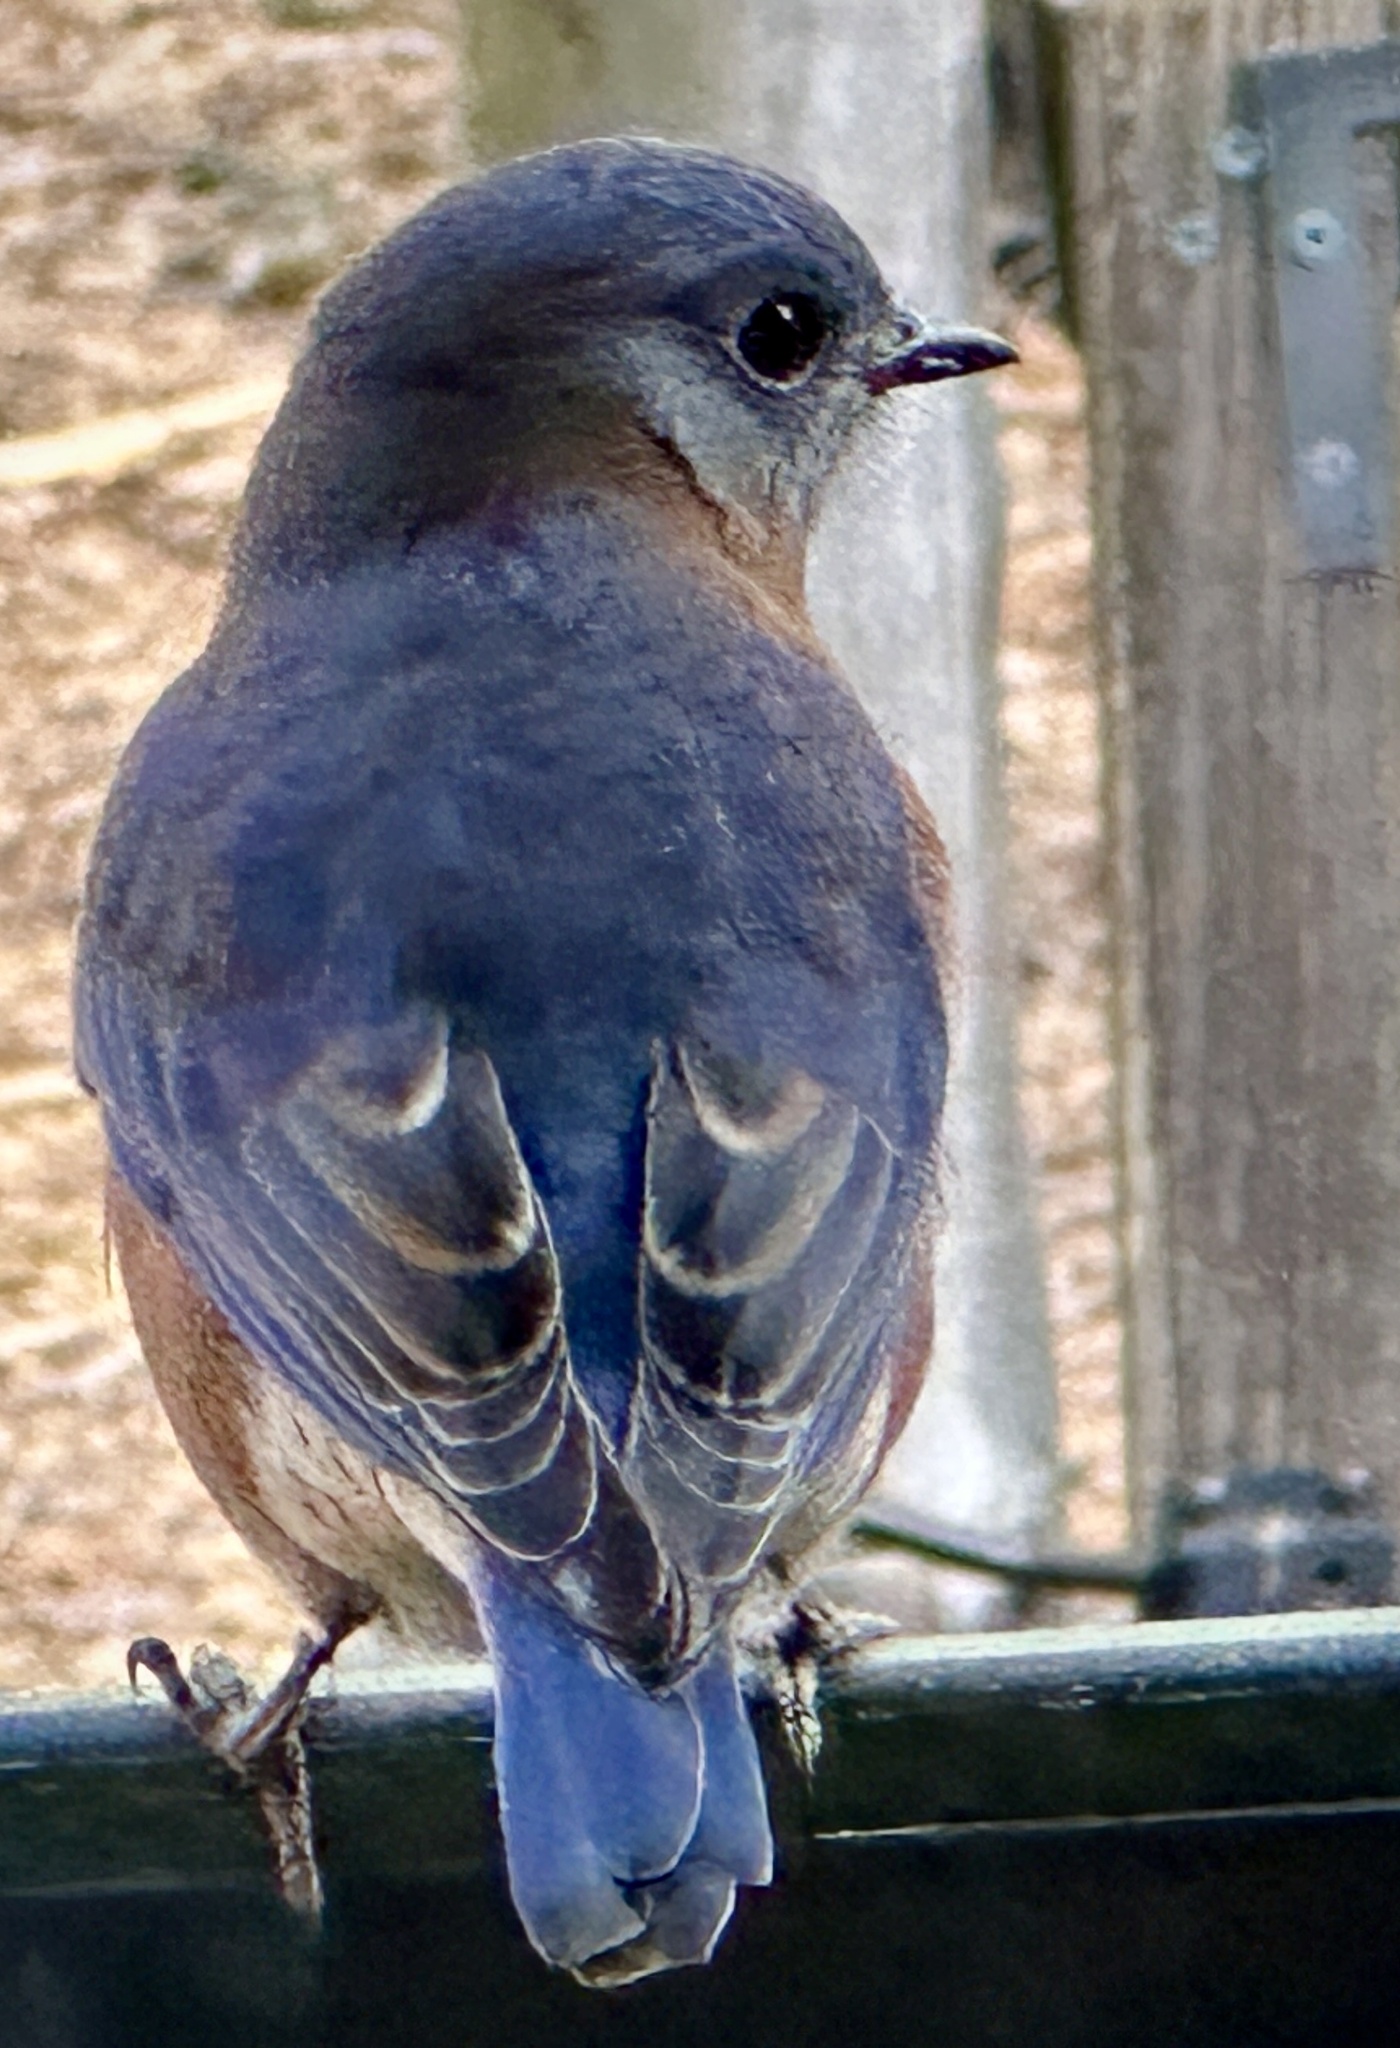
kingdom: Animalia
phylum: Chordata
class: Aves
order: Passeriformes
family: Turdidae
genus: Sialia
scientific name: Sialia sialis
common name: Eastern bluebird
